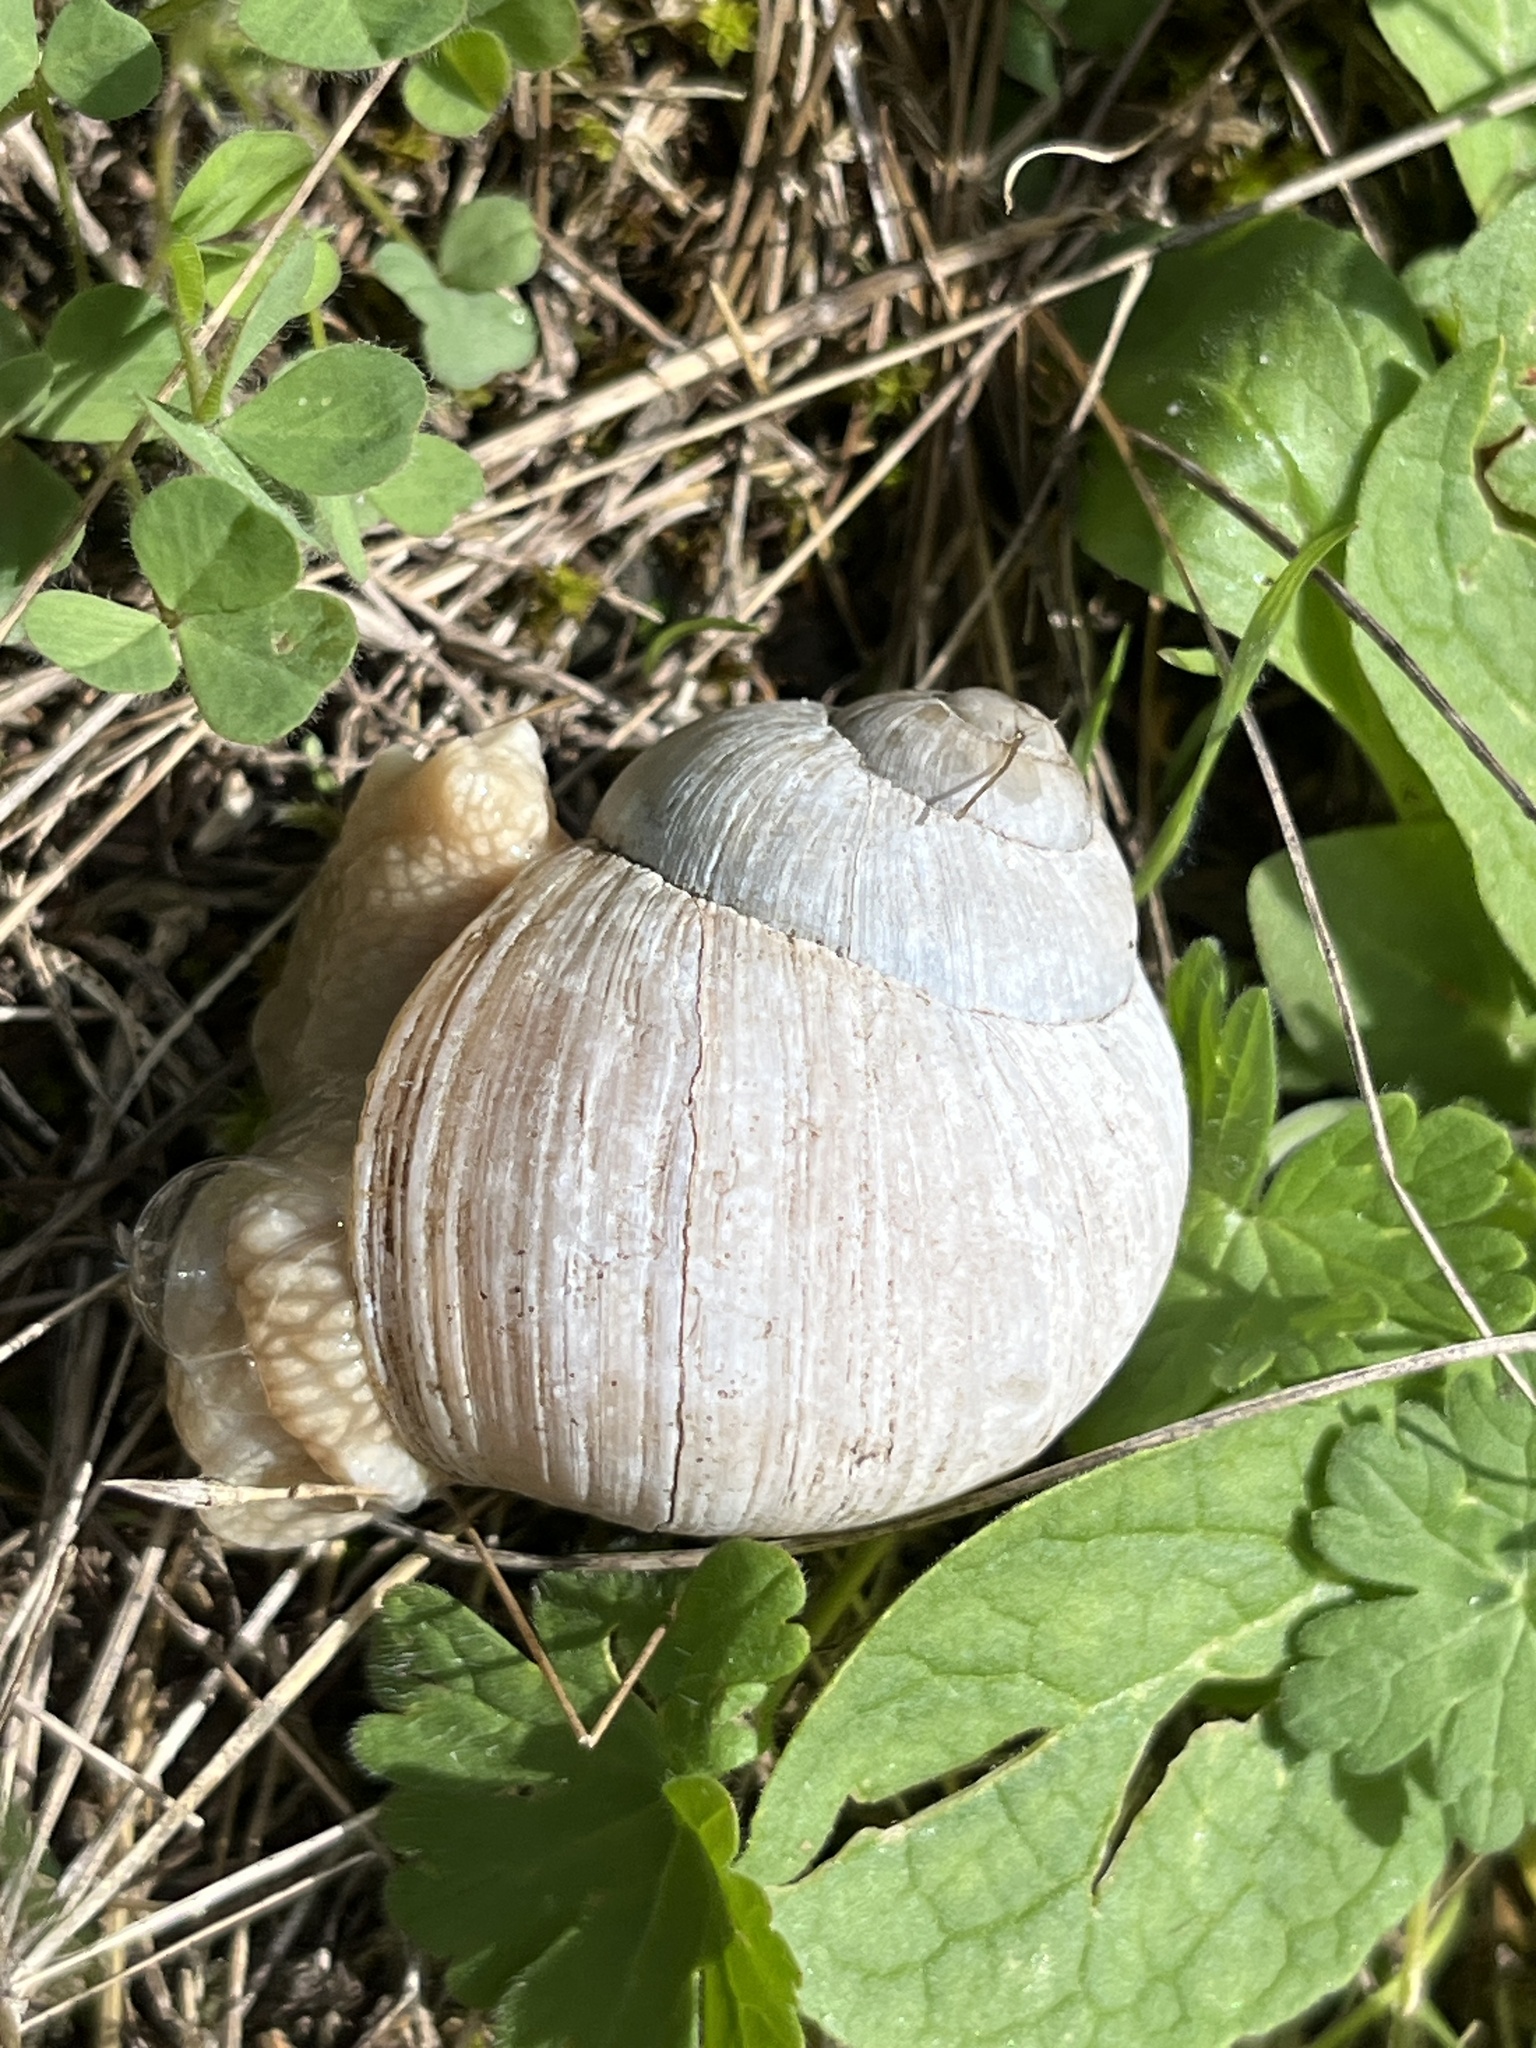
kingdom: Animalia
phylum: Mollusca
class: Gastropoda
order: Stylommatophora
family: Helicidae
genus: Helix
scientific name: Helix pomatia
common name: Roman snail
